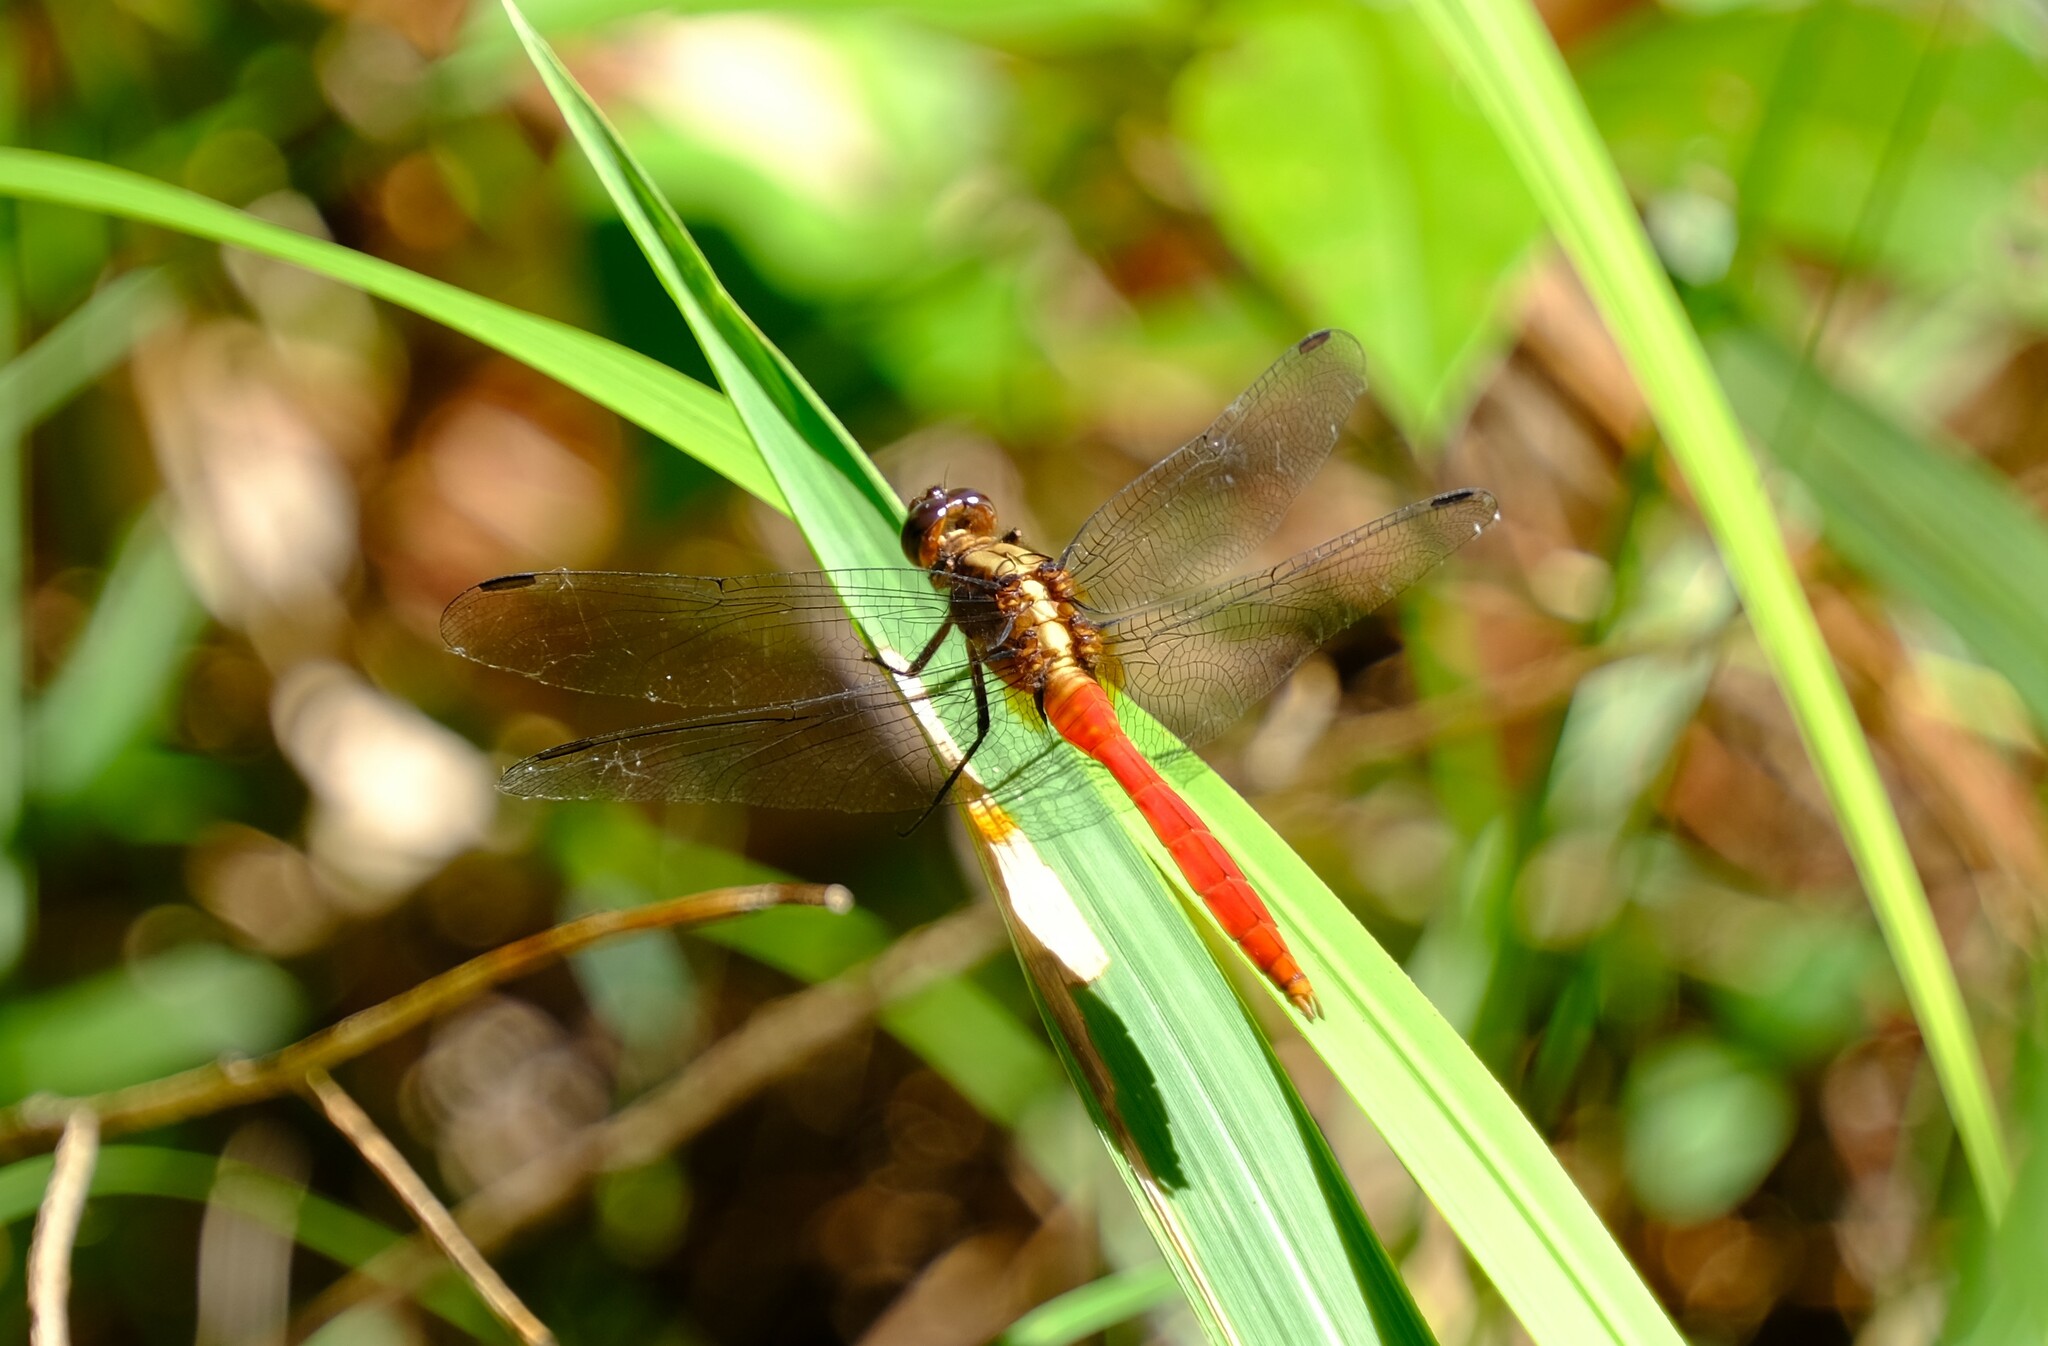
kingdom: Animalia
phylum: Arthropoda
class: Insecta
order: Odonata
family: Libellulidae
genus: Orthetrum
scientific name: Orthetrum villosovittatum
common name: Firery skimmer
